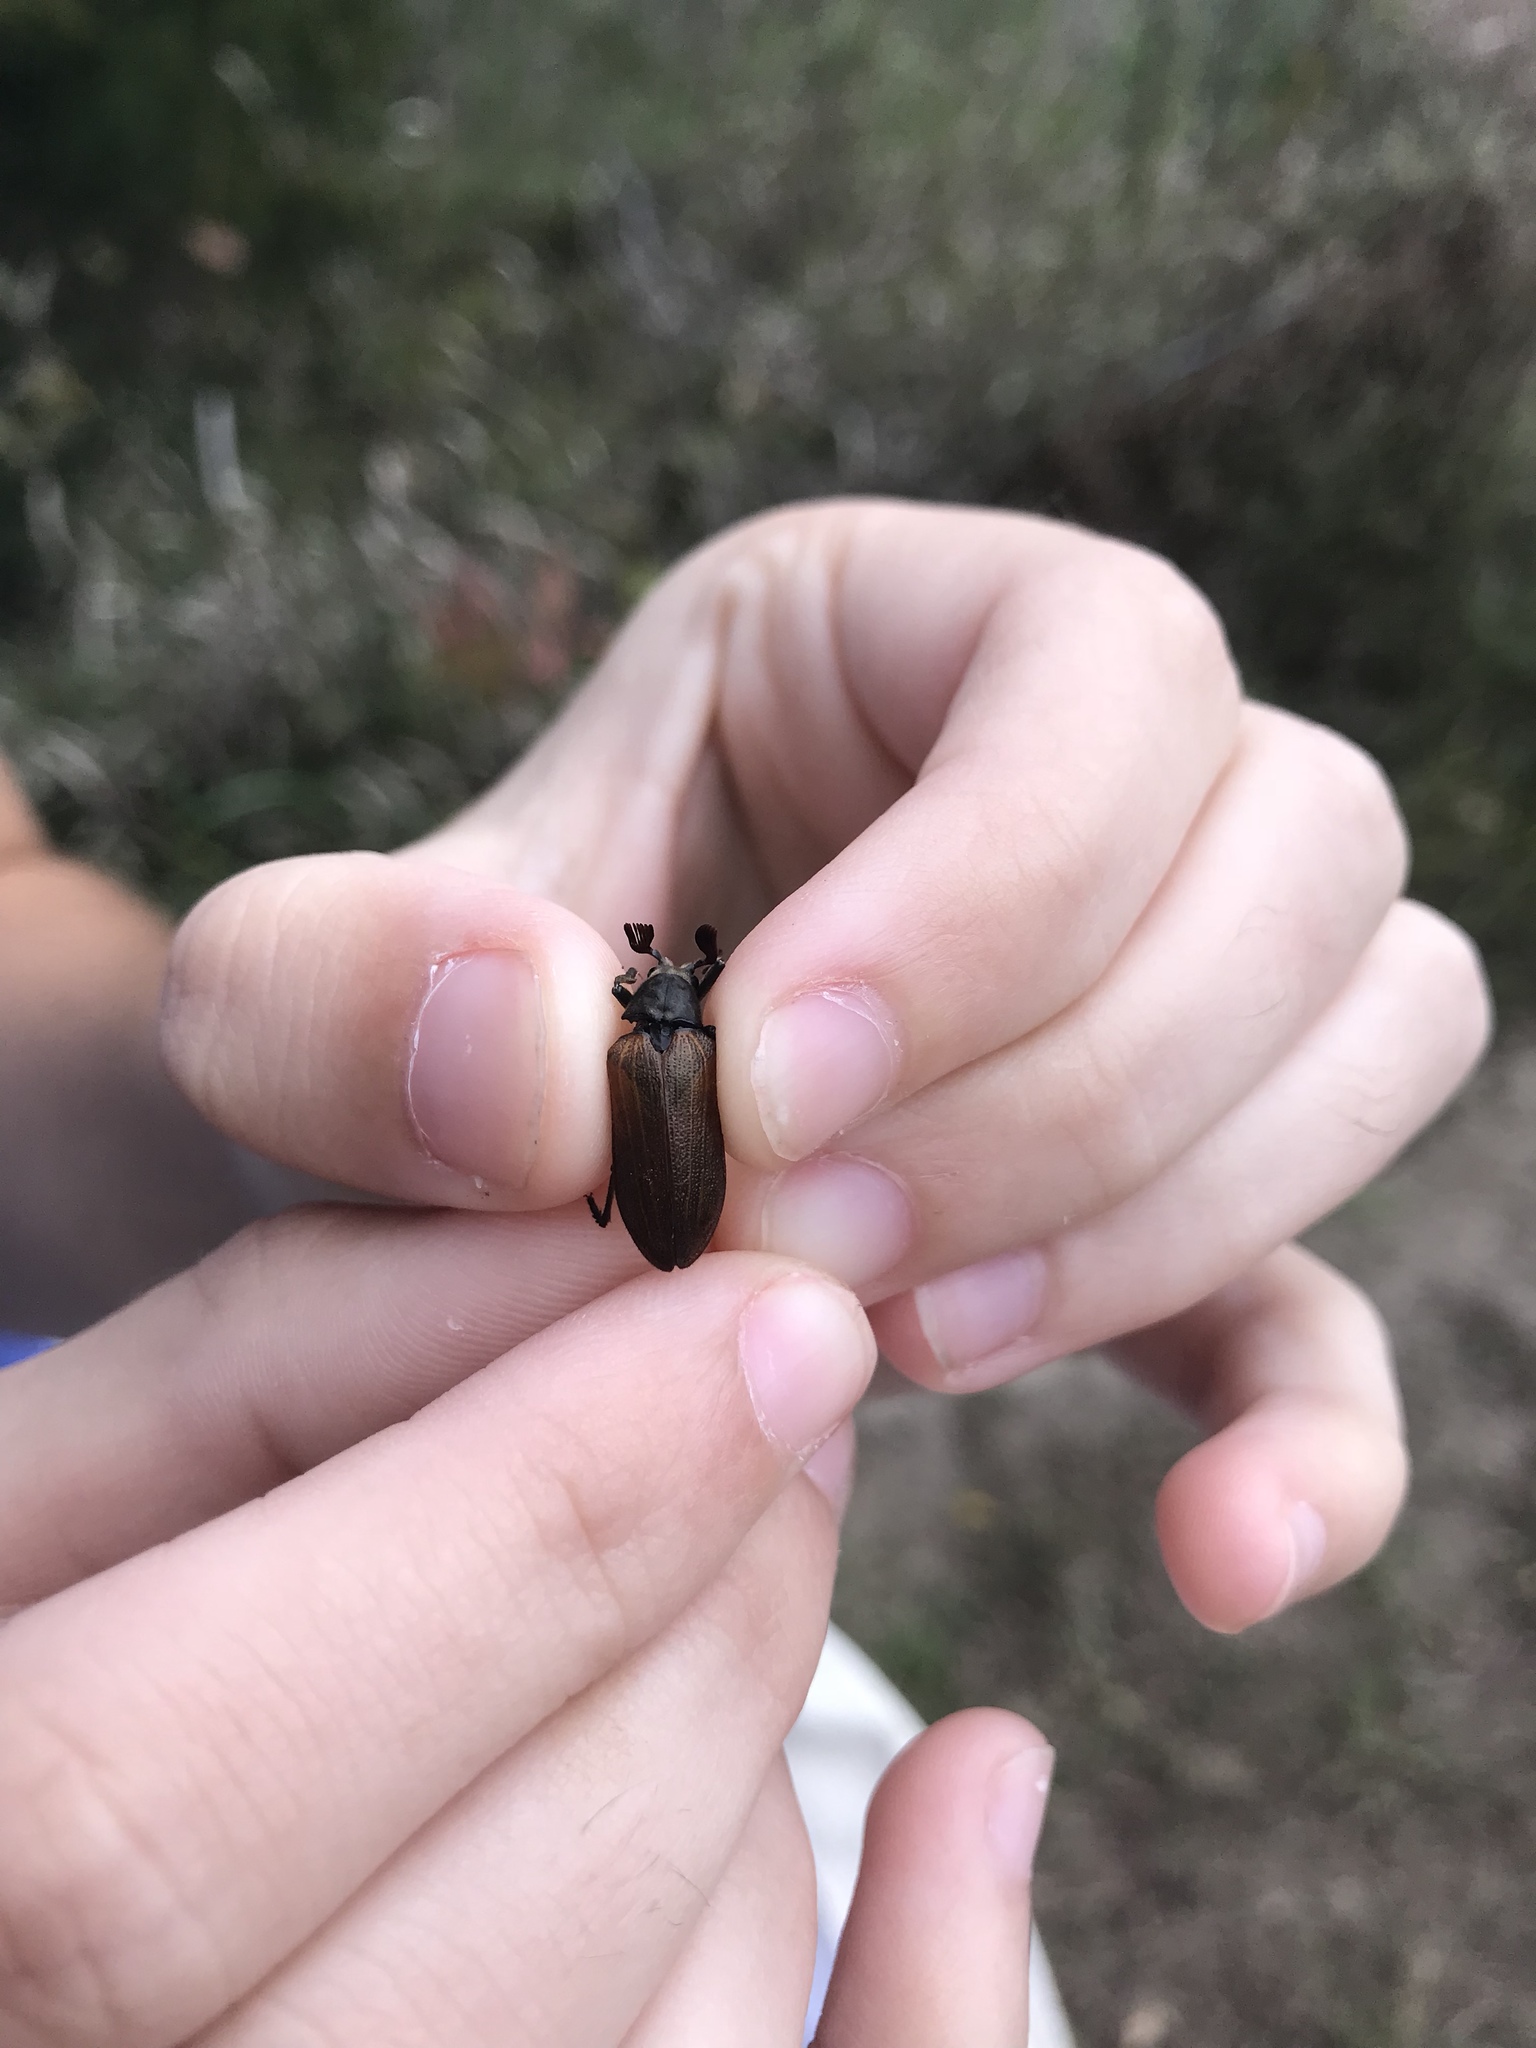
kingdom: Animalia
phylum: Arthropoda
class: Insecta
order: Coleoptera
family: Rhipiceridae
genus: Sandalus
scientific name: Sandalus niger
